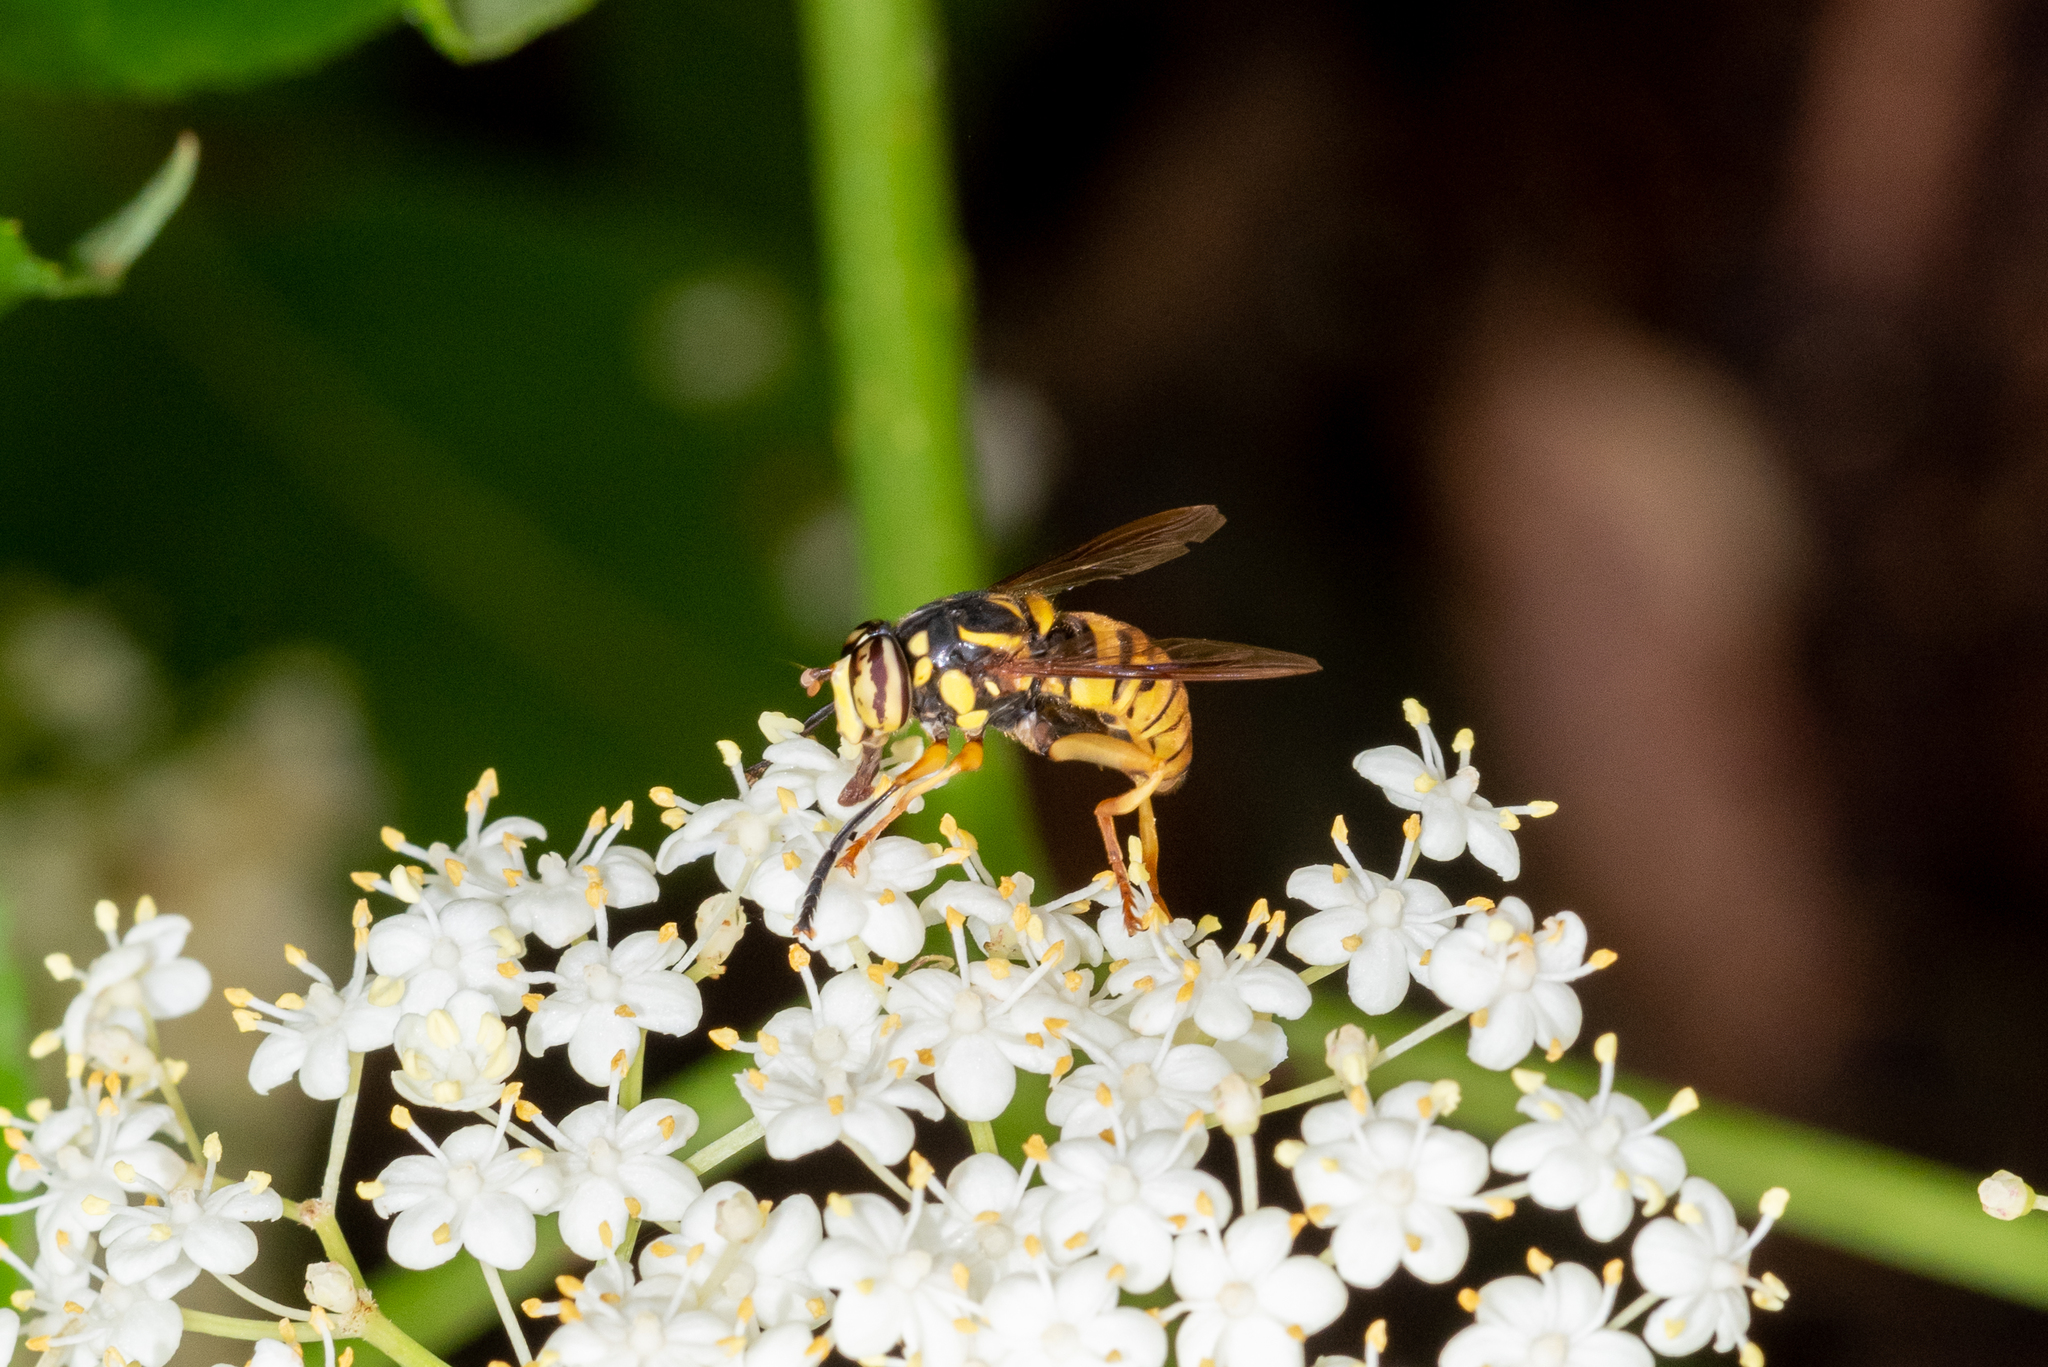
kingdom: Animalia
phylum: Arthropoda
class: Insecta
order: Diptera
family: Syrphidae
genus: Spilomyia
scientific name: Spilomyia alcimus
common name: Broad-banded hornet fly
